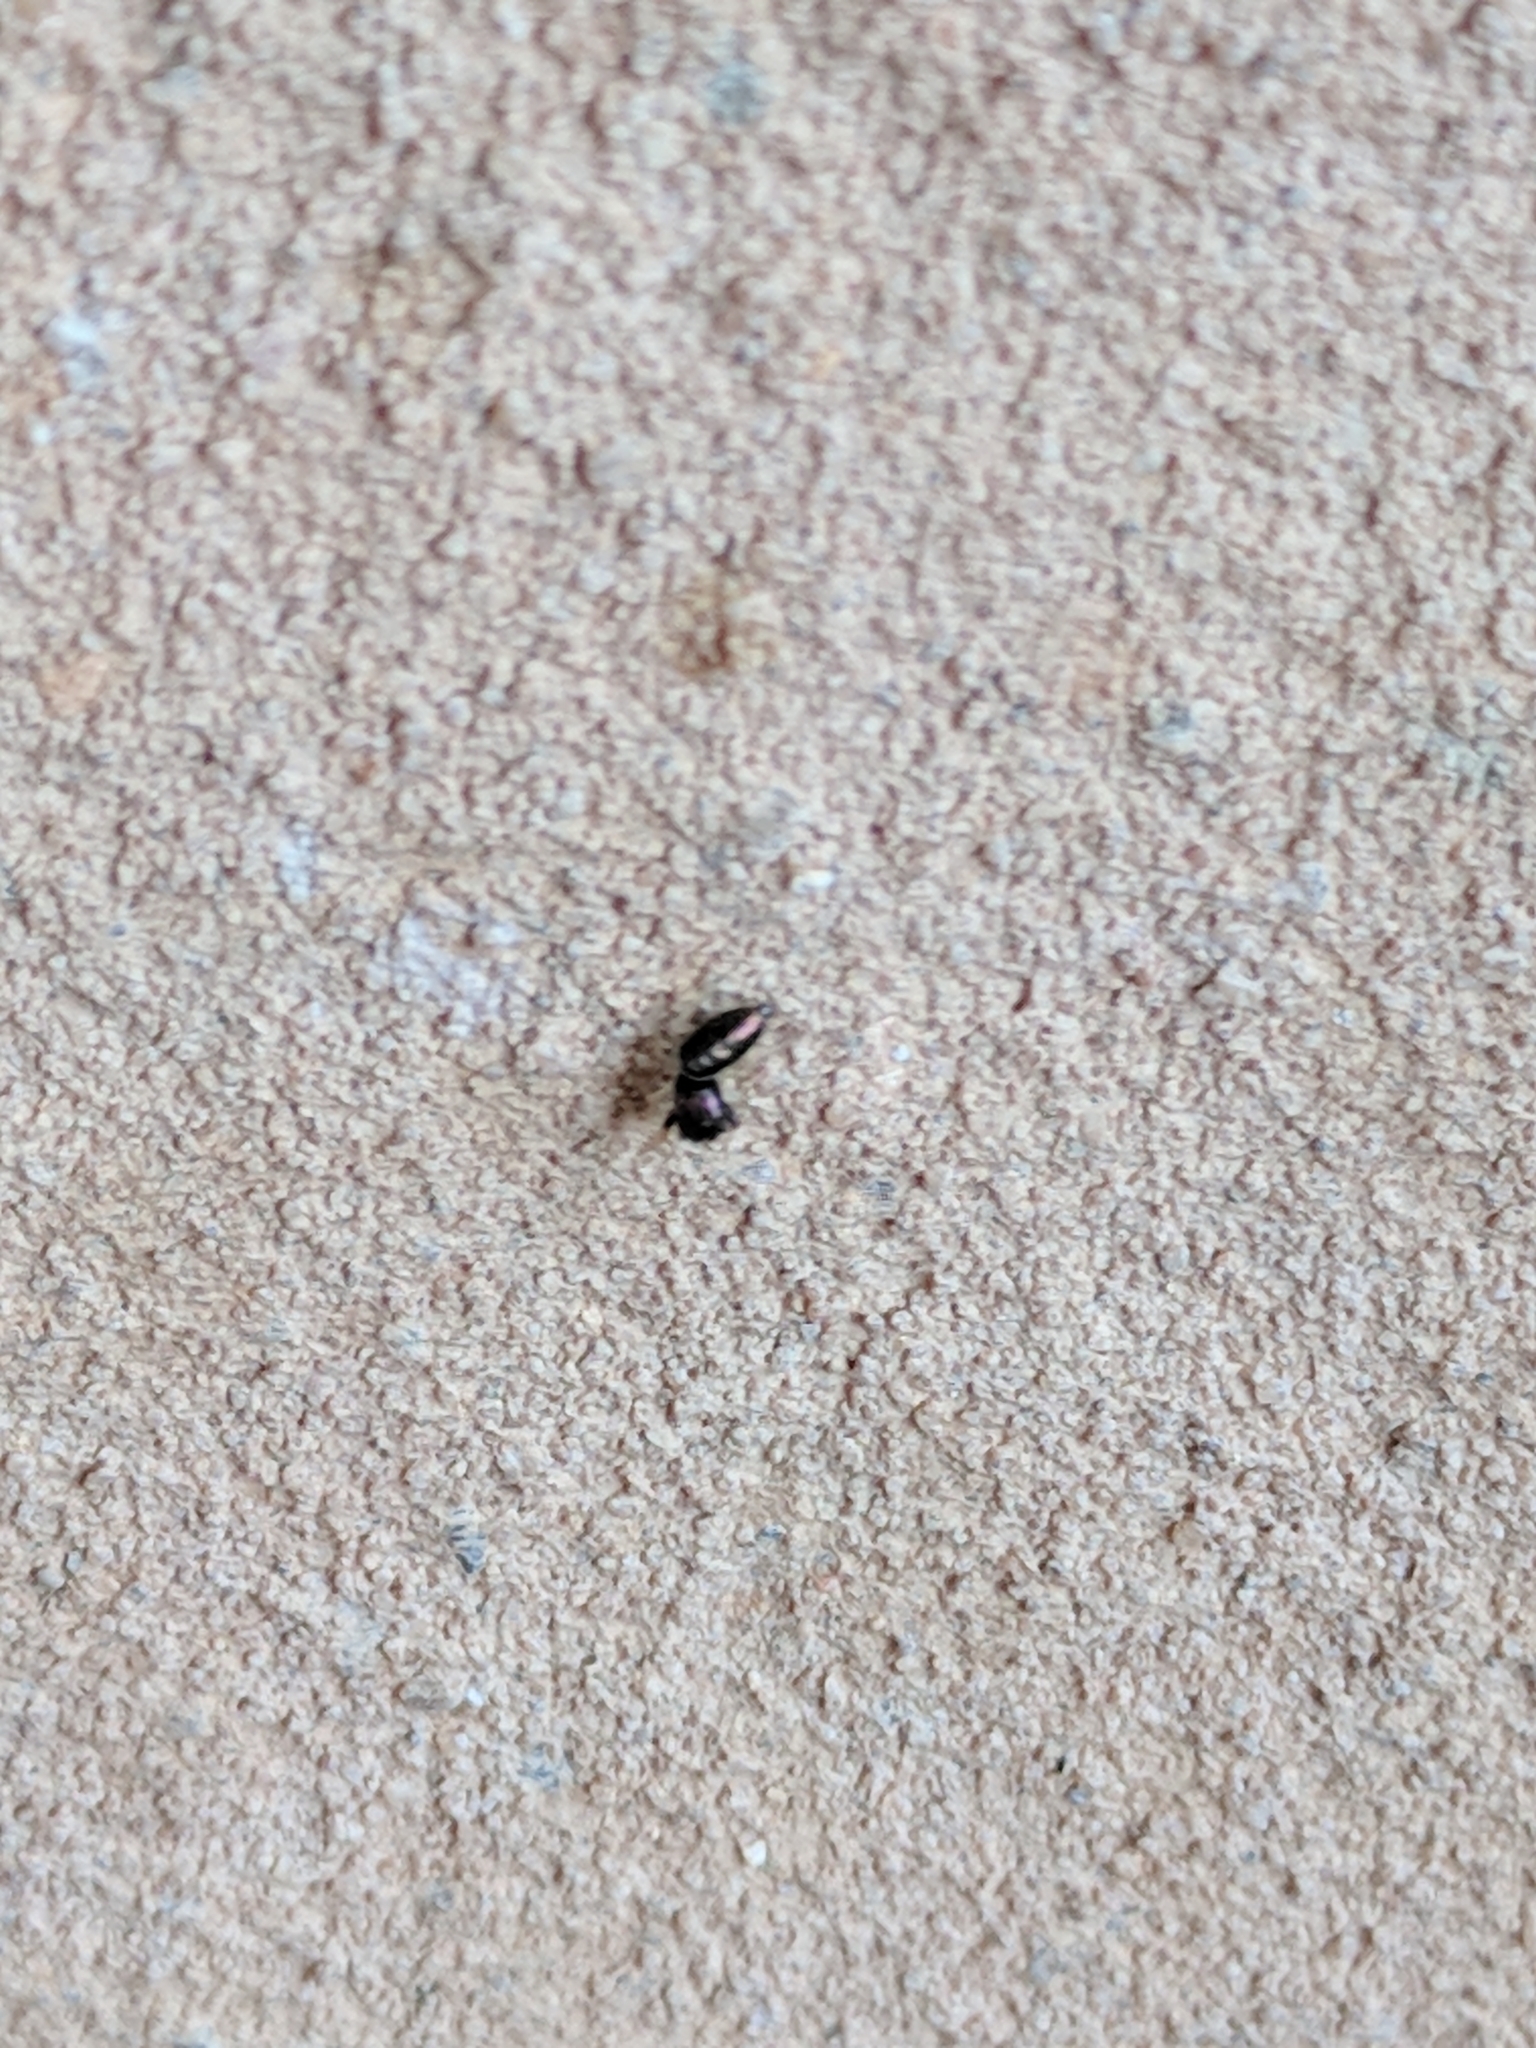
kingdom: Animalia
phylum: Arthropoda
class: Arachnida
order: Araneae
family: Salticidae
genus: Sassacus
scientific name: Sassacus vitis
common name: Jumping spiders
